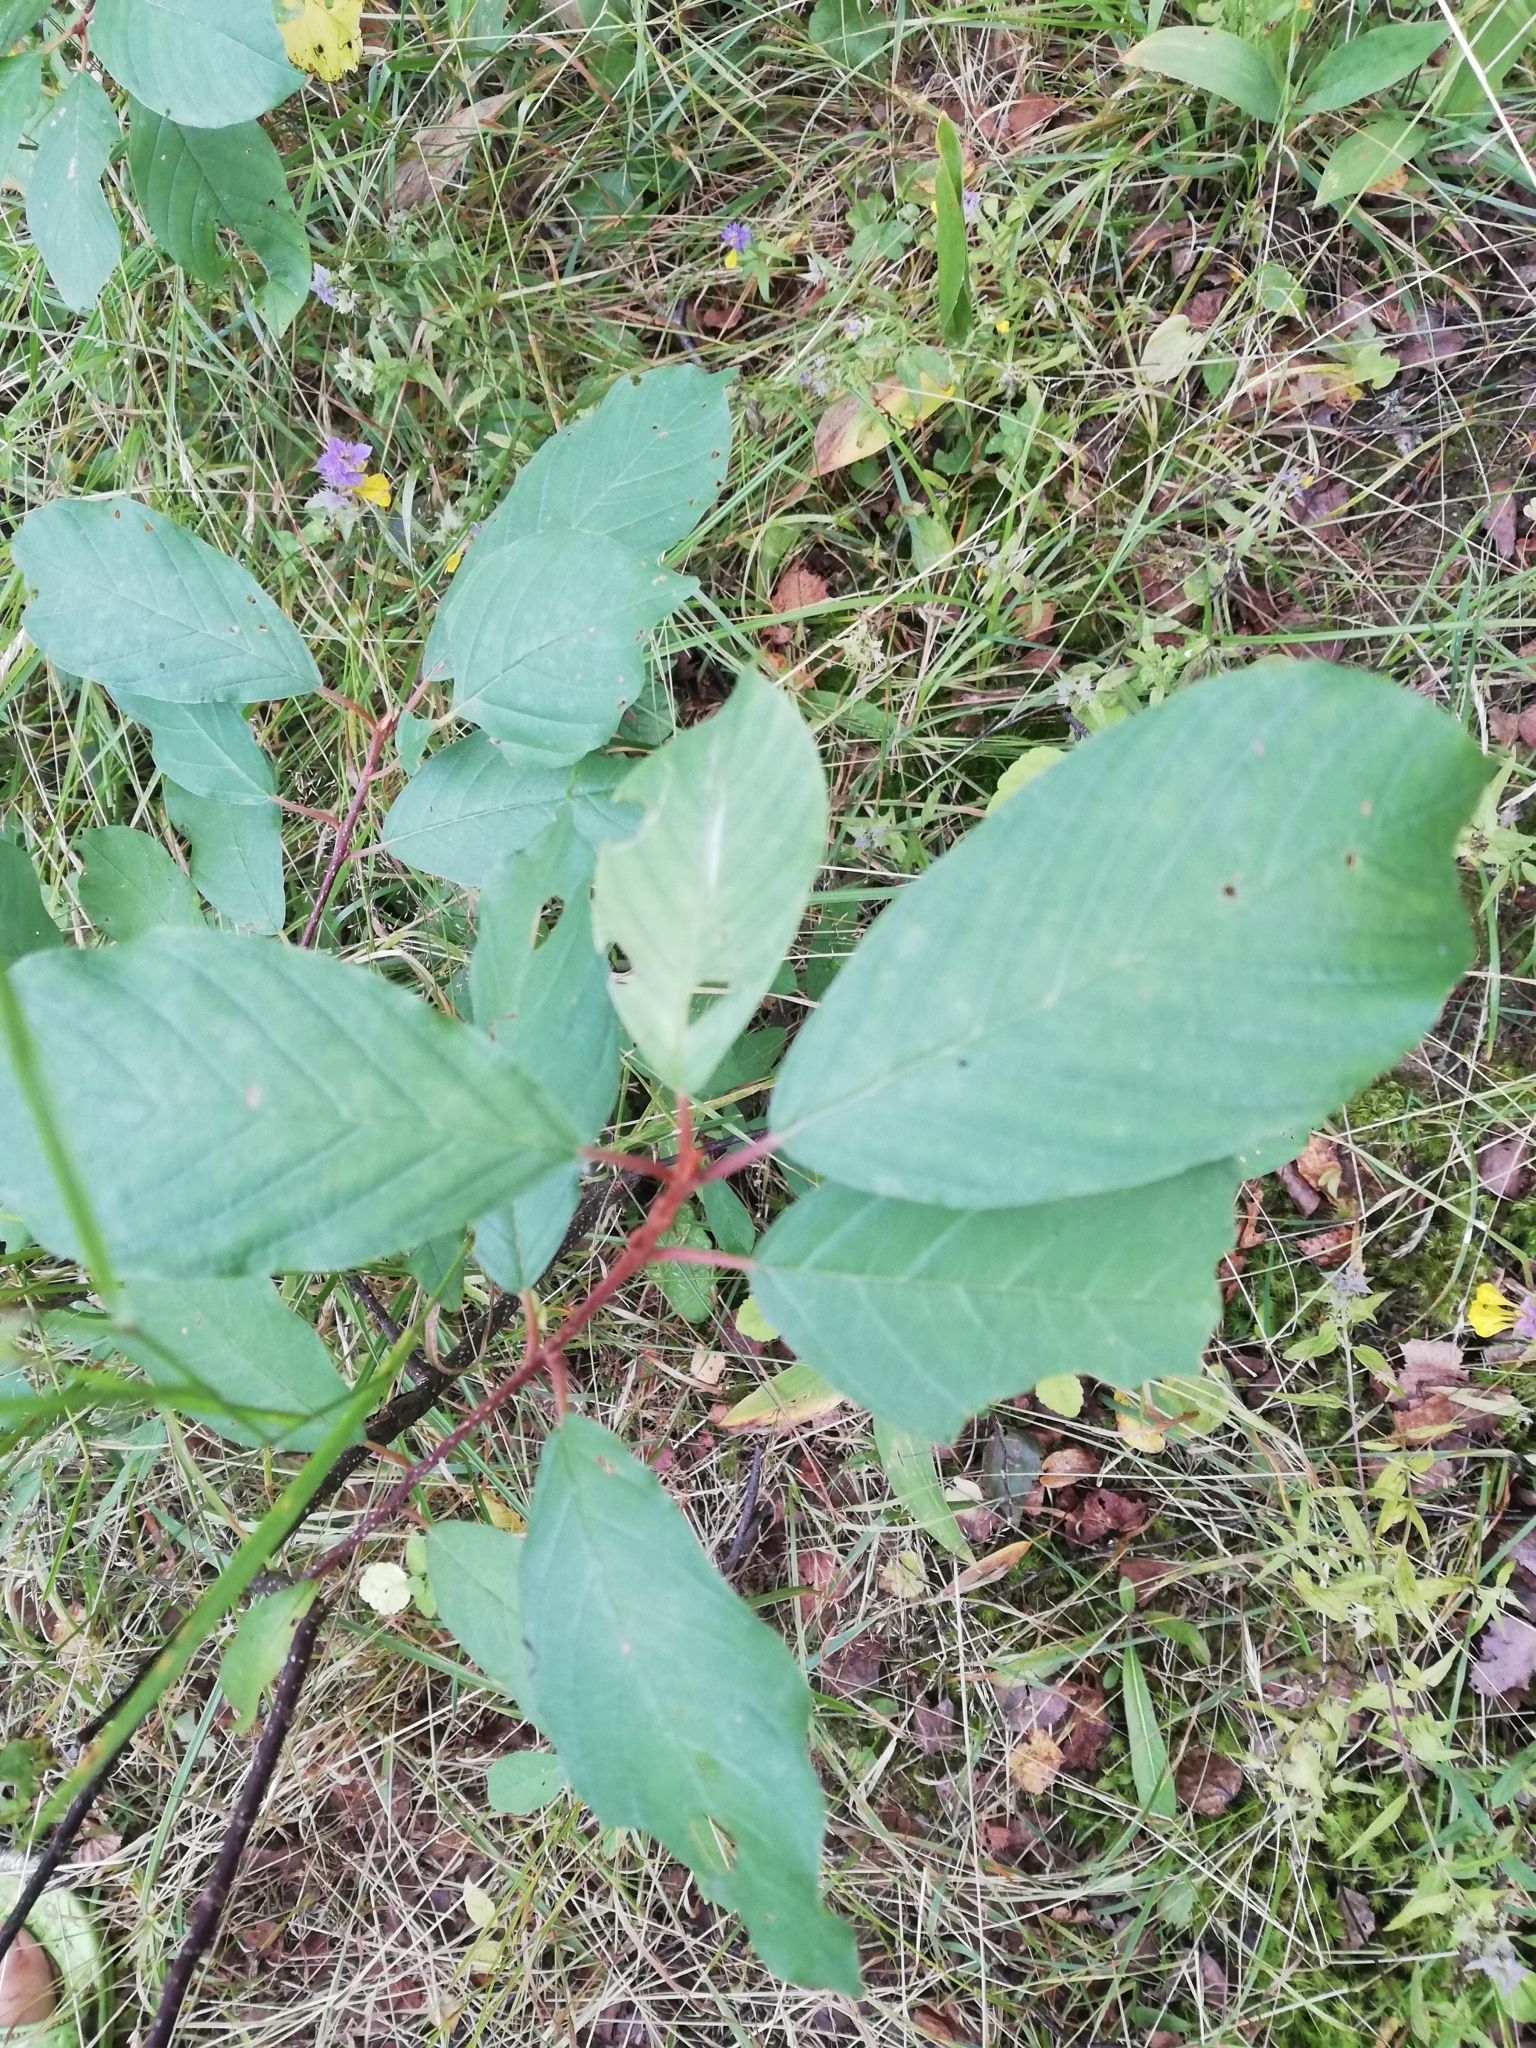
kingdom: Plantae
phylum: Tracheophyta
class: Magnoliopsida
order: Rosales
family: Rhamnaceae
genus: Frangula
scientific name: Frangula alnus
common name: Alder buckthorn
